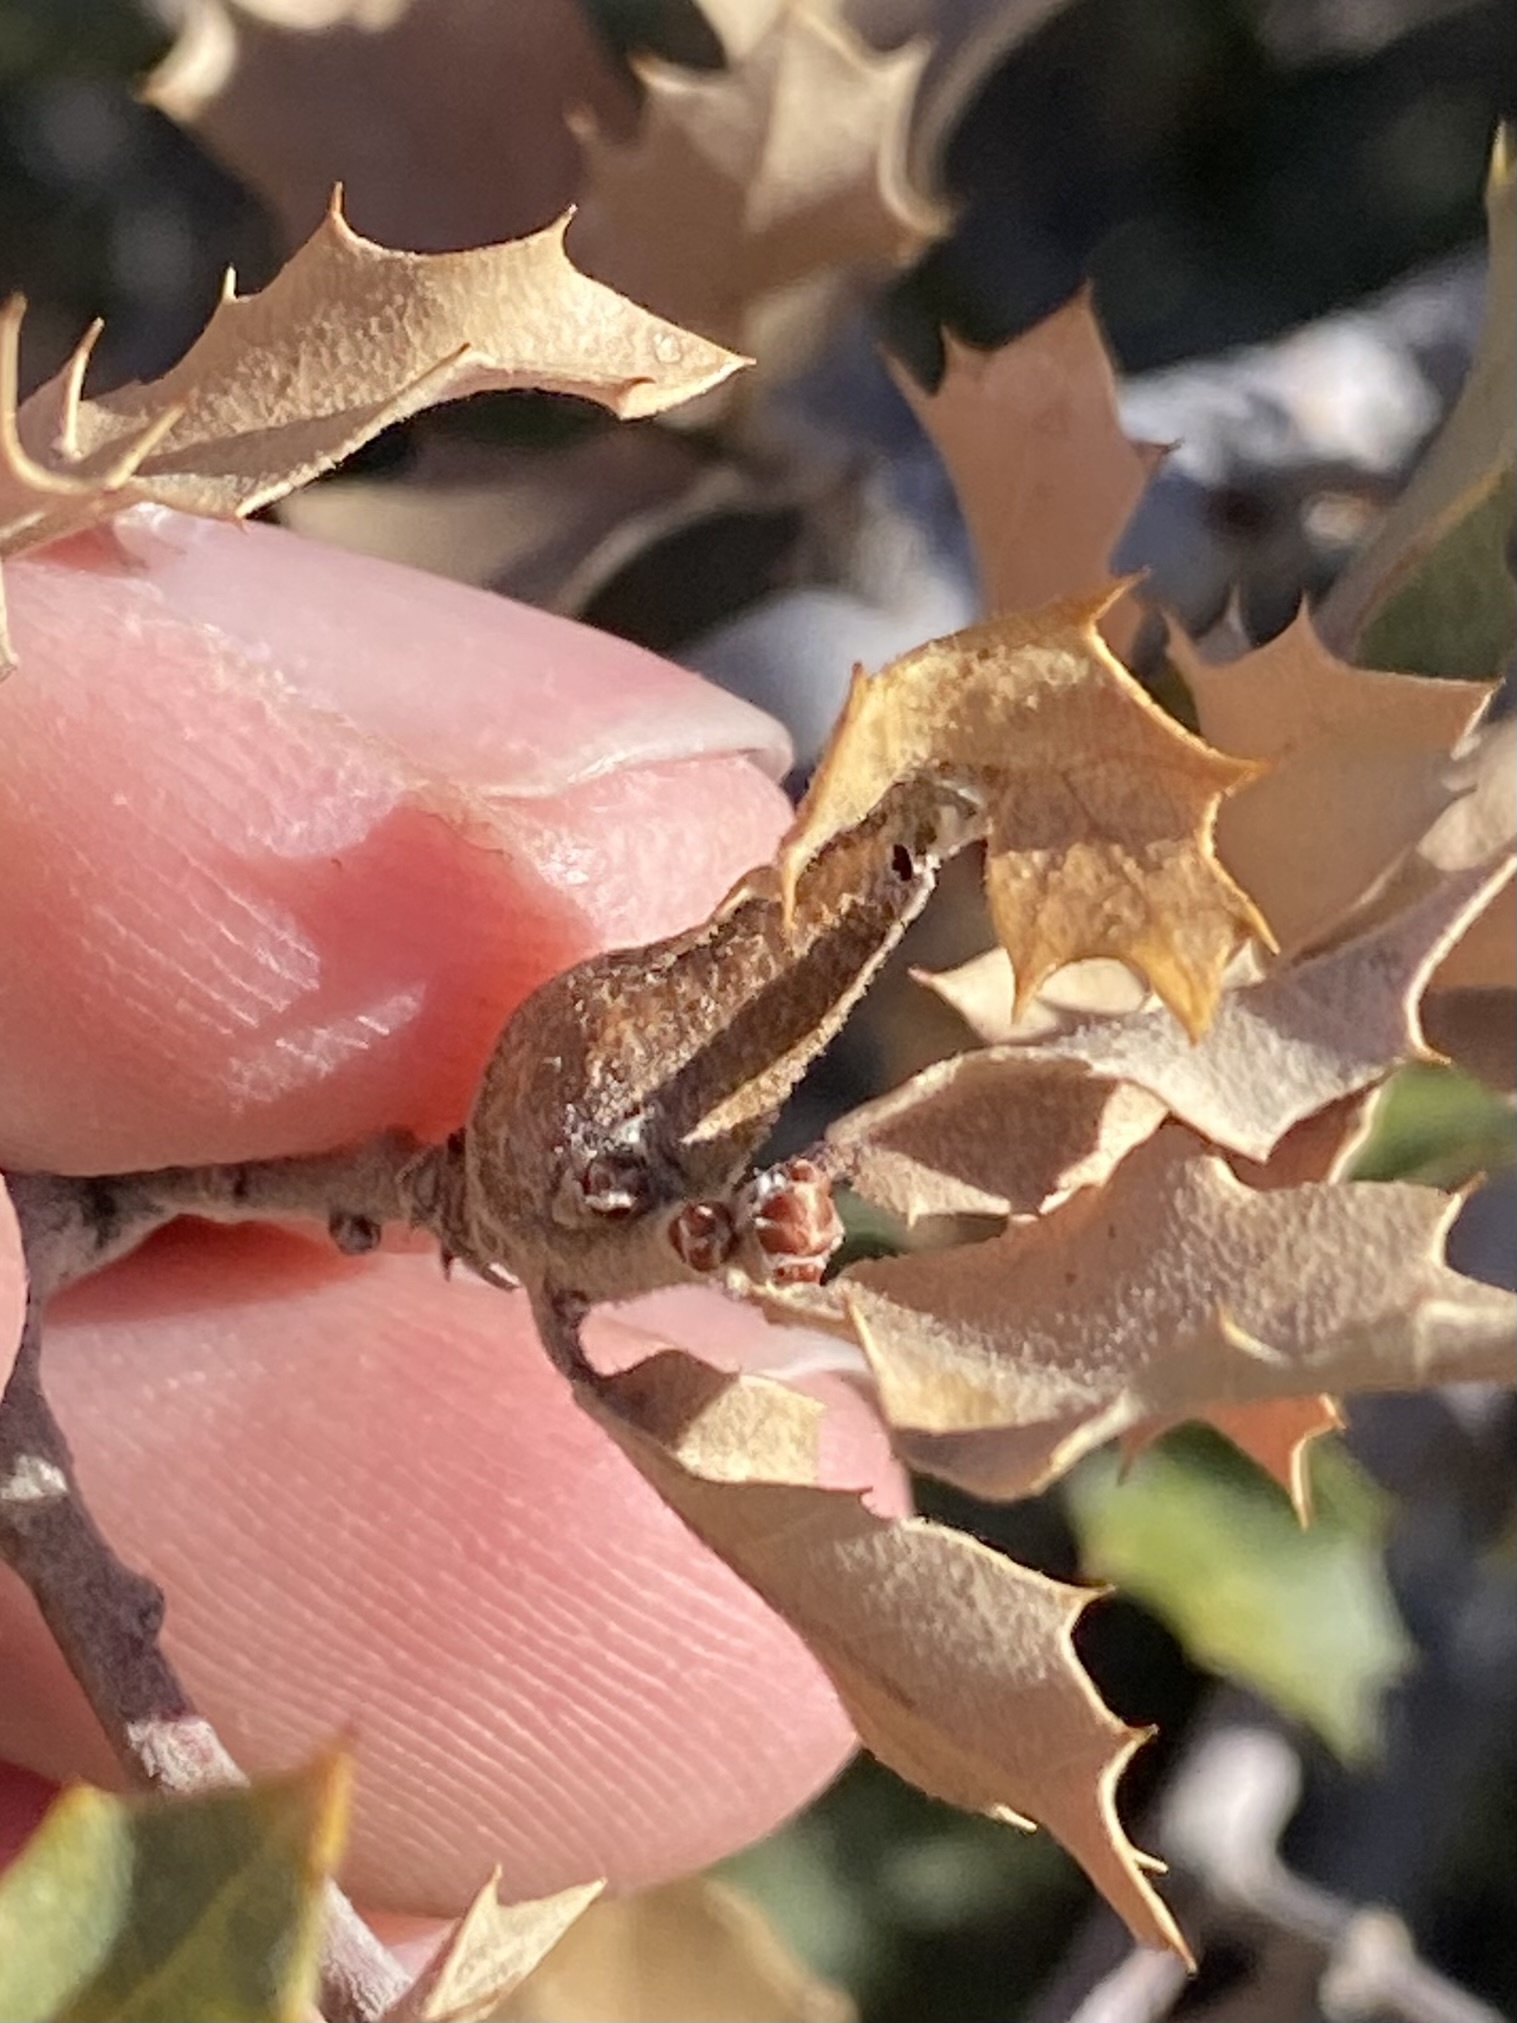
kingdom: Animalia
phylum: Arthropoda
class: Insecta
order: Hymenoptera
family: Cynipidae
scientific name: Cynipidae
